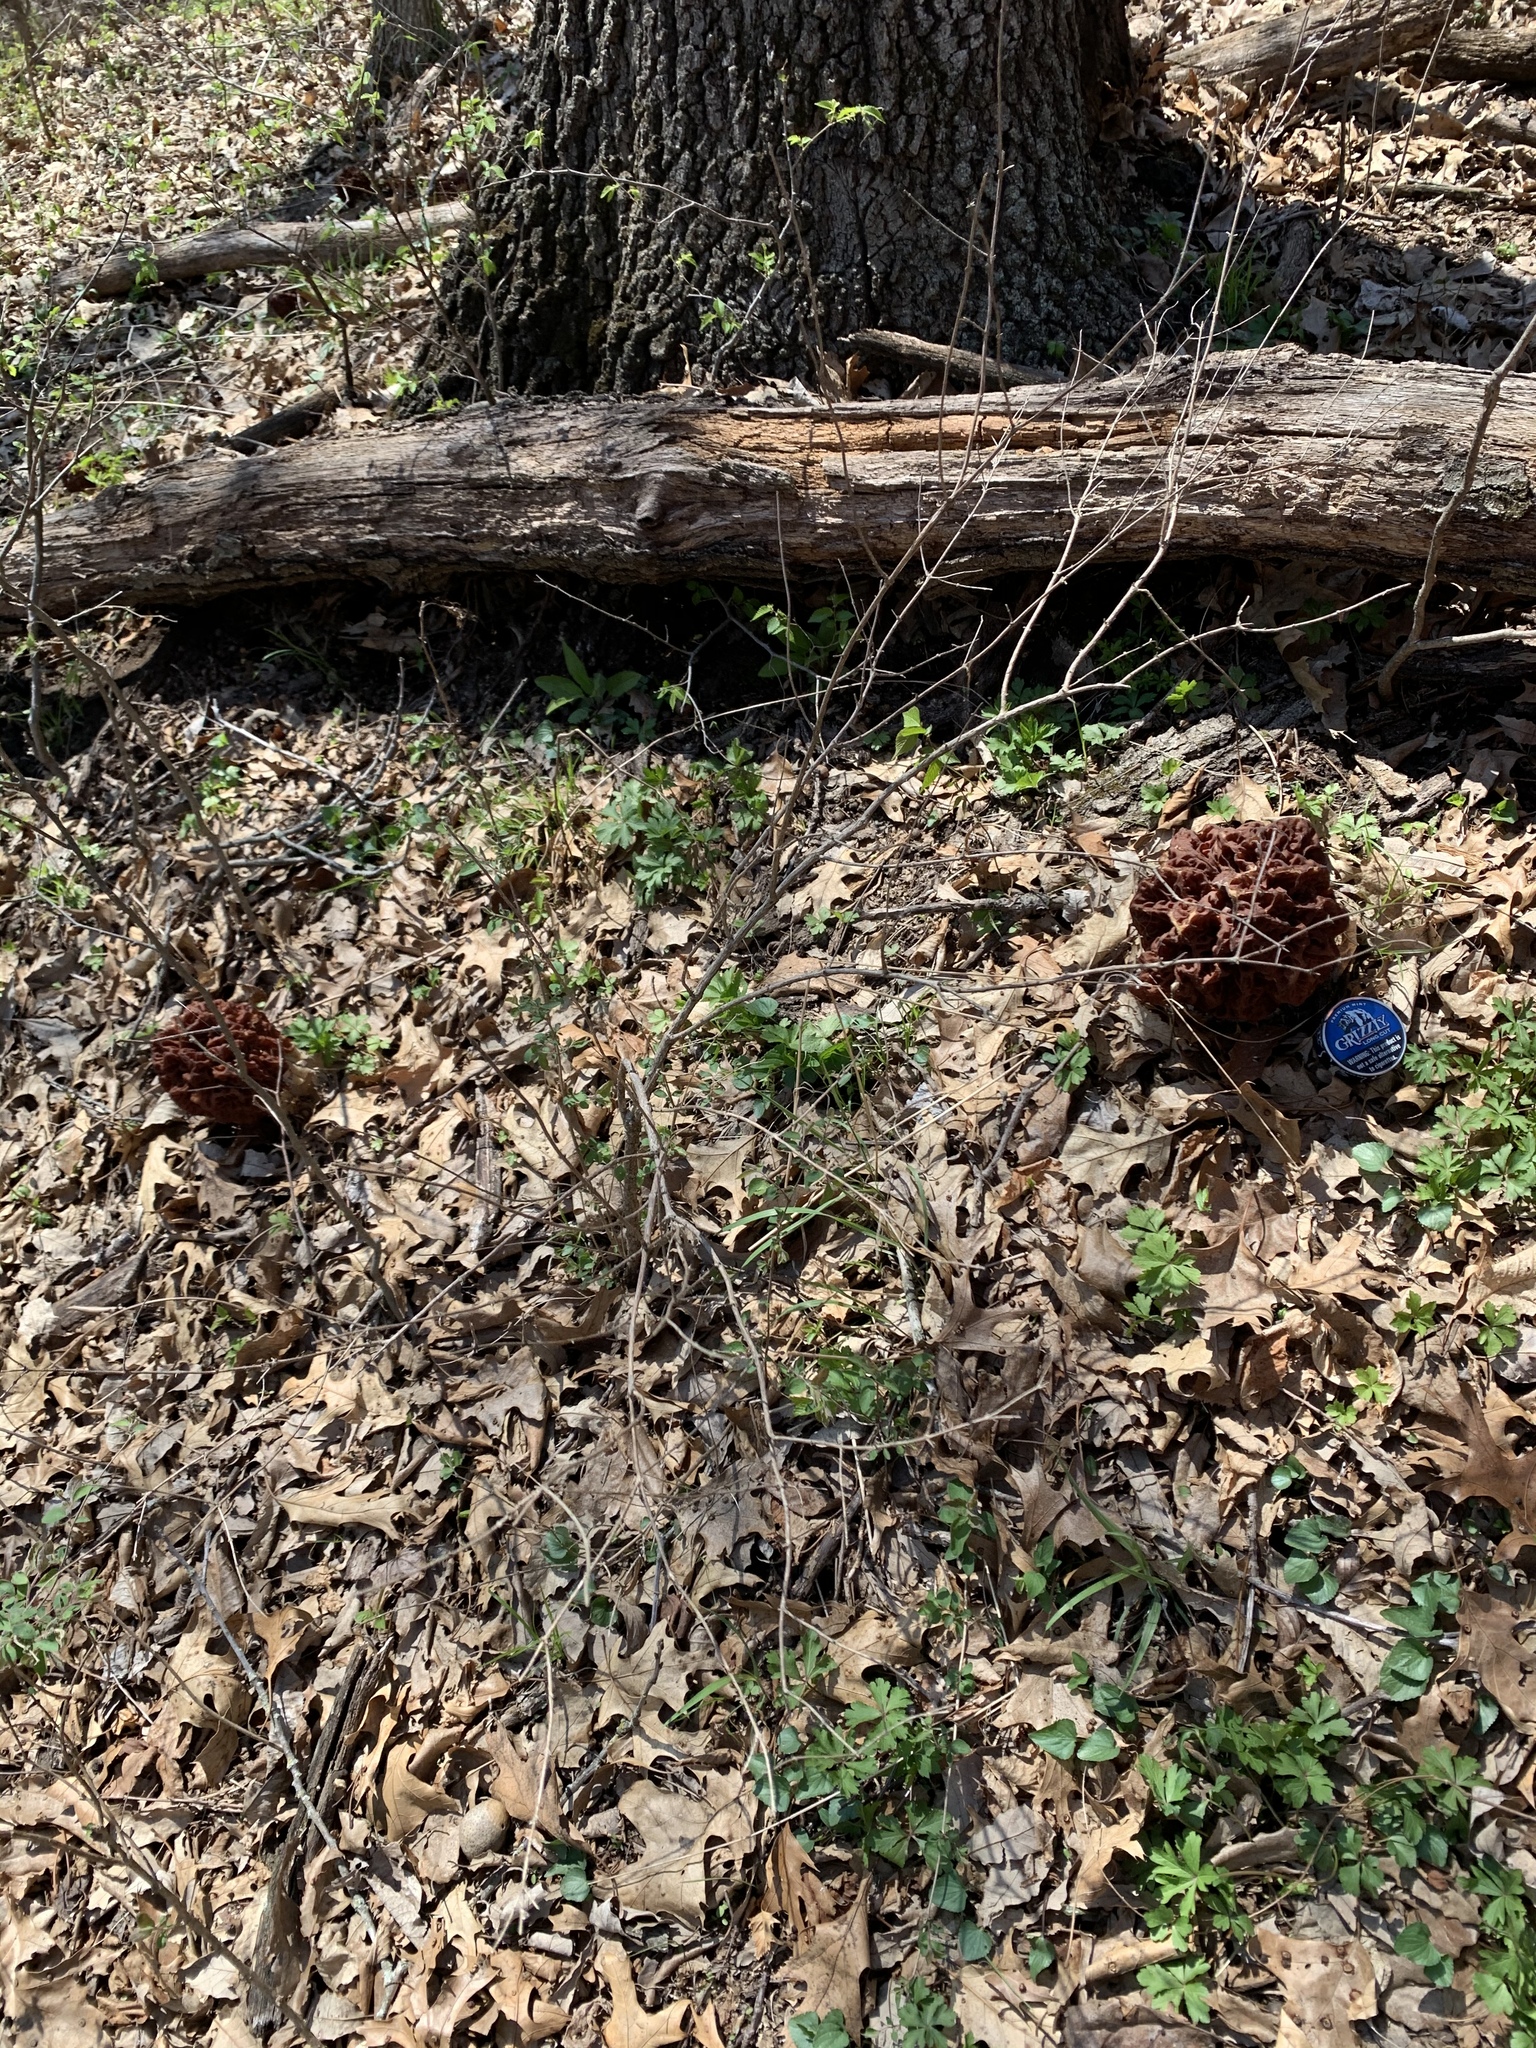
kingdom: Fungi
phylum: Ascomycota
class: Pezizomycetes
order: Pezizales
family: Discinaceae
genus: Discina
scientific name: Discina caroliniana
